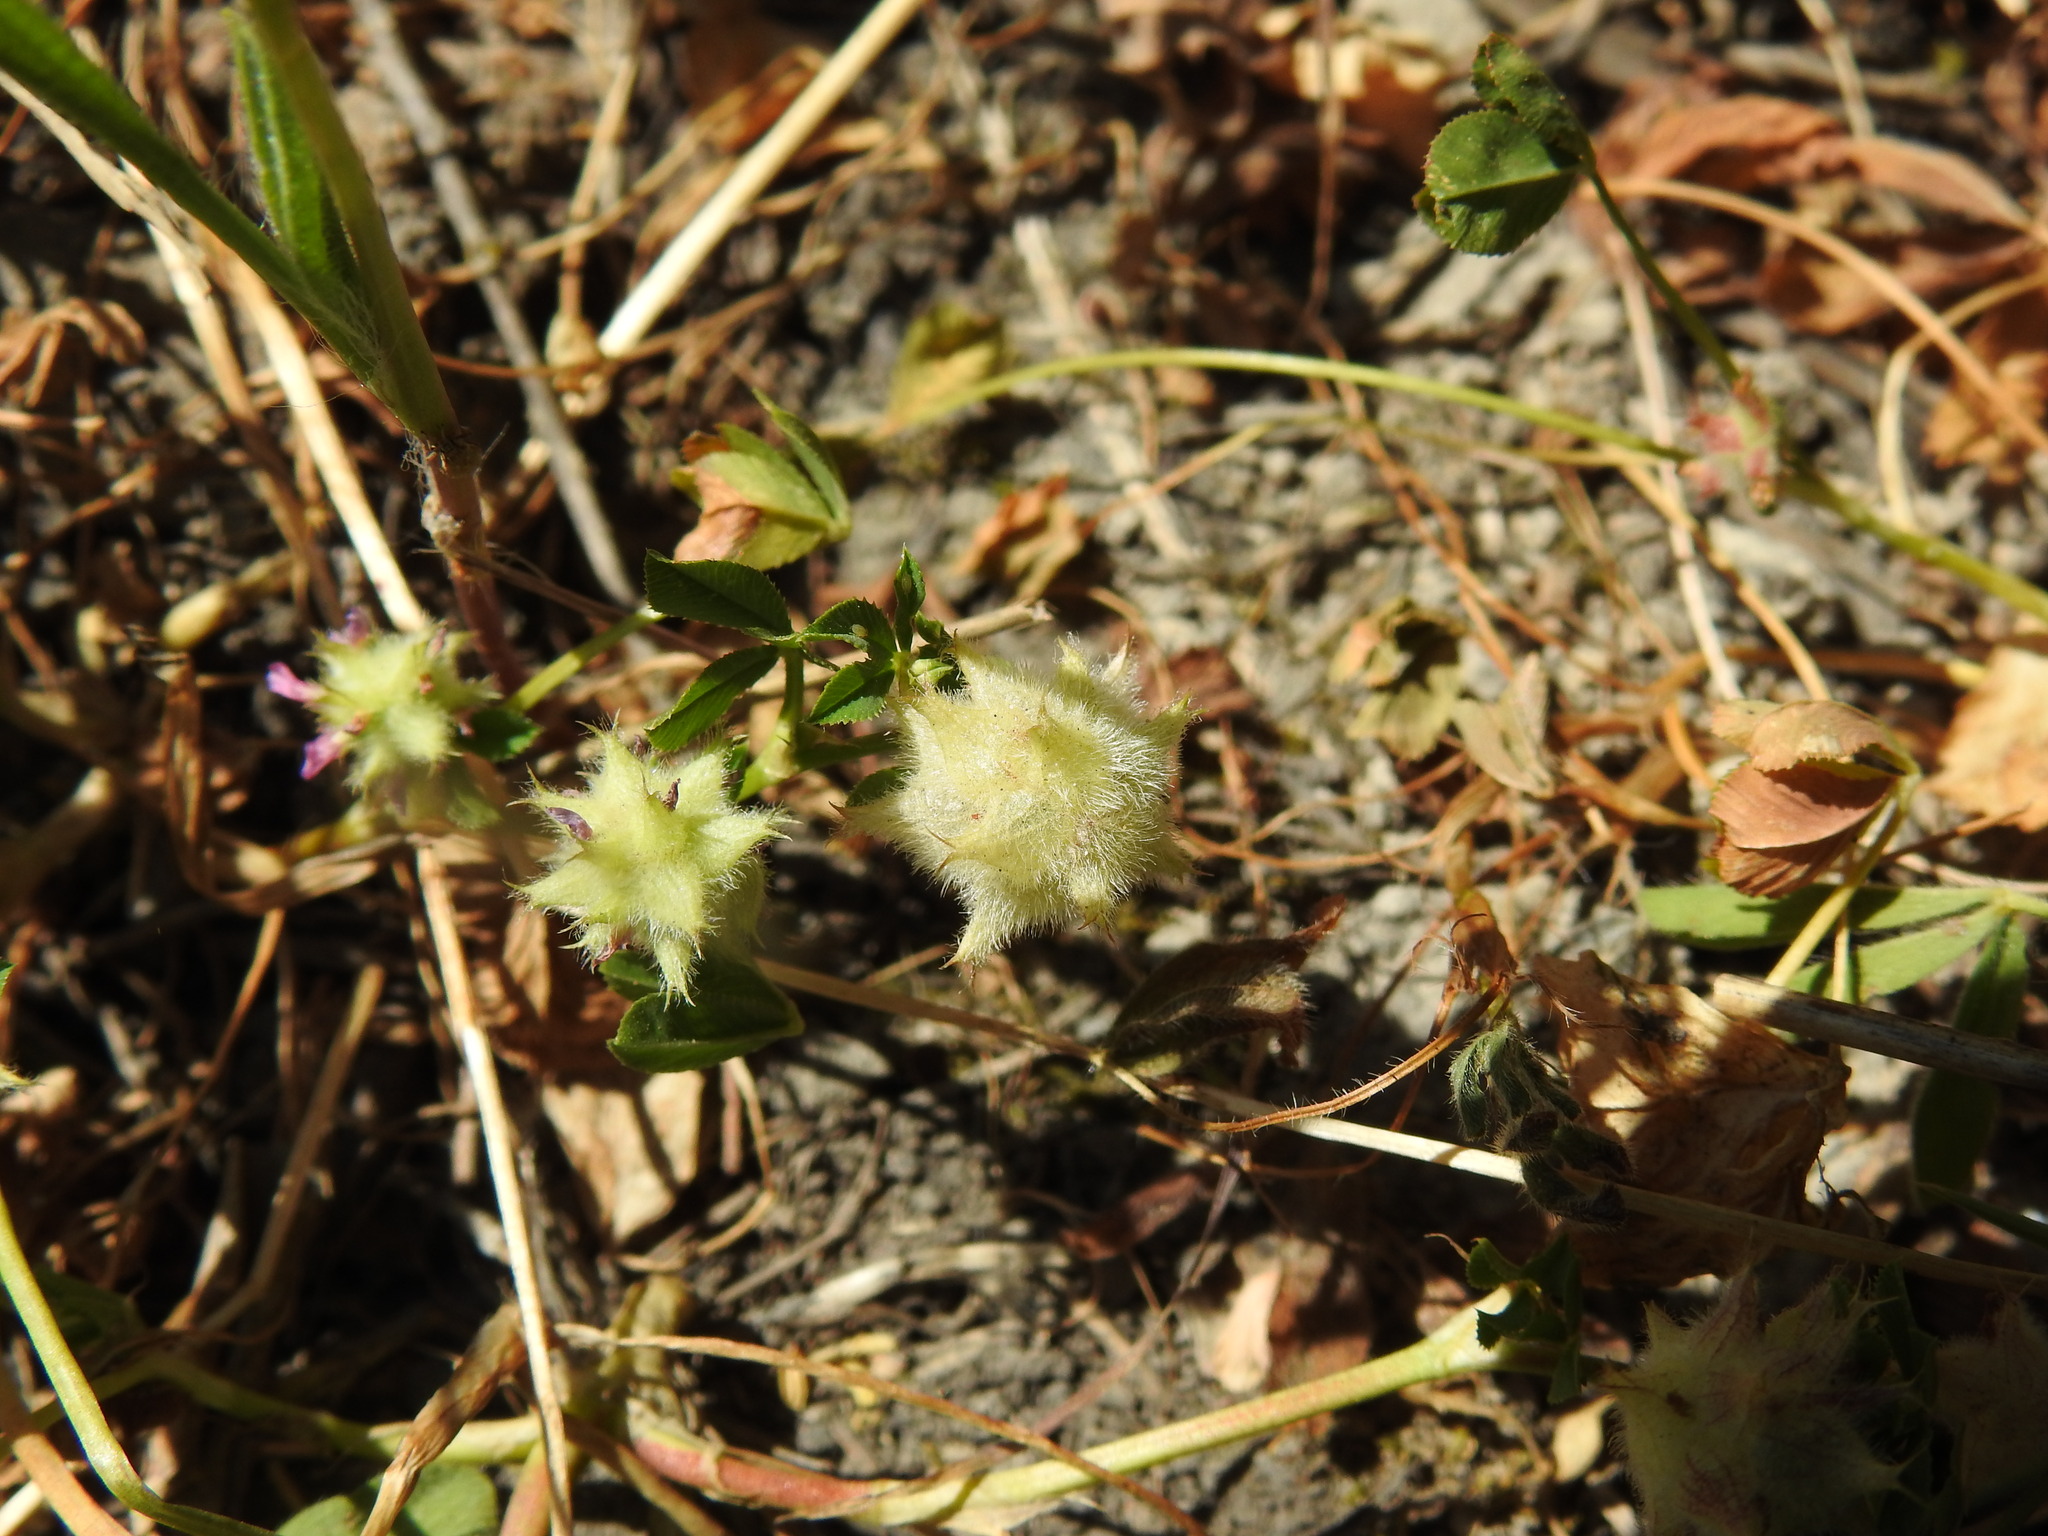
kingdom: Plantae
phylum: Tracheophyta
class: Magnoliopsida
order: Fabales
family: Fabaceae
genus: Trifolium
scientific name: Trifolium resupinatum
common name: Reversed clover
